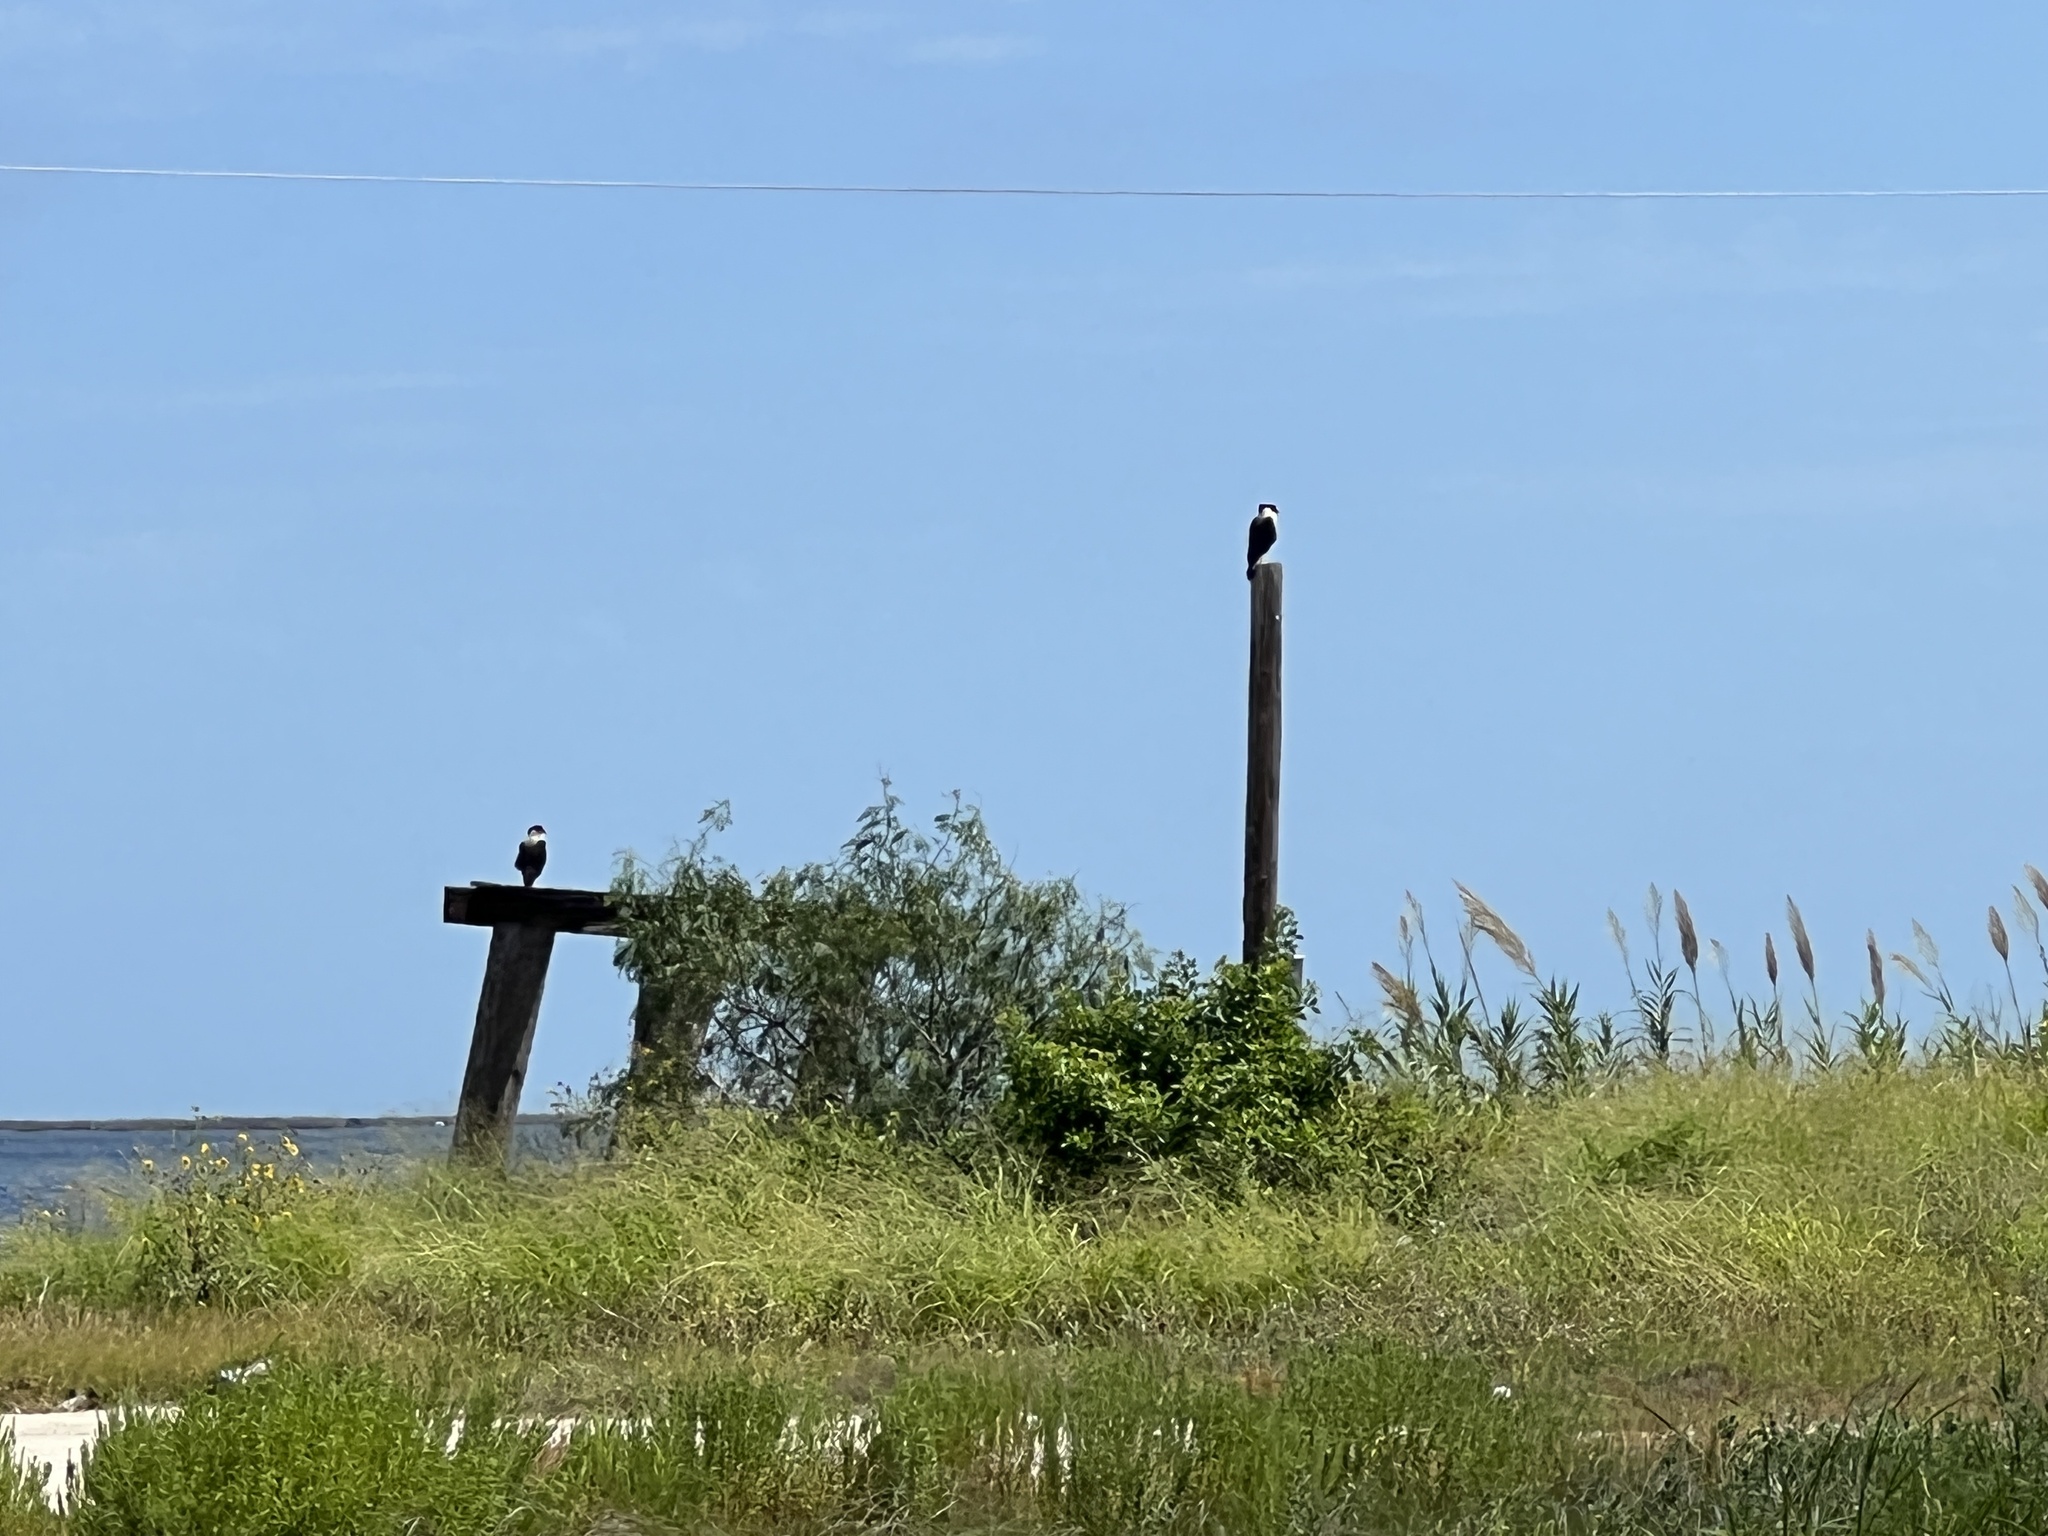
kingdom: Animalia
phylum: Chordata
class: Aves
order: Falconiformes
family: Falconidae
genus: Caracara
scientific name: Caracara plancus
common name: Southern caracara
